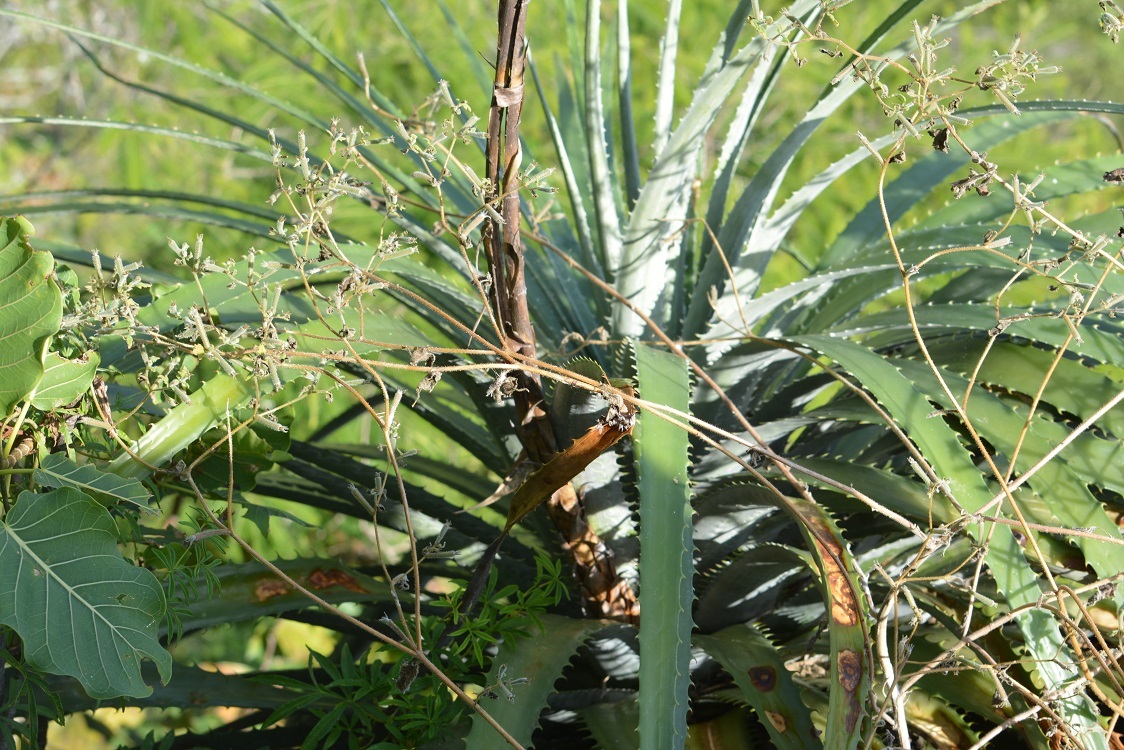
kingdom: Plantae
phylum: Tracheophyta
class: Liliopsida
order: Poales
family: Bromeliaceae
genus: Hechtia
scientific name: Hechtia glomerata
